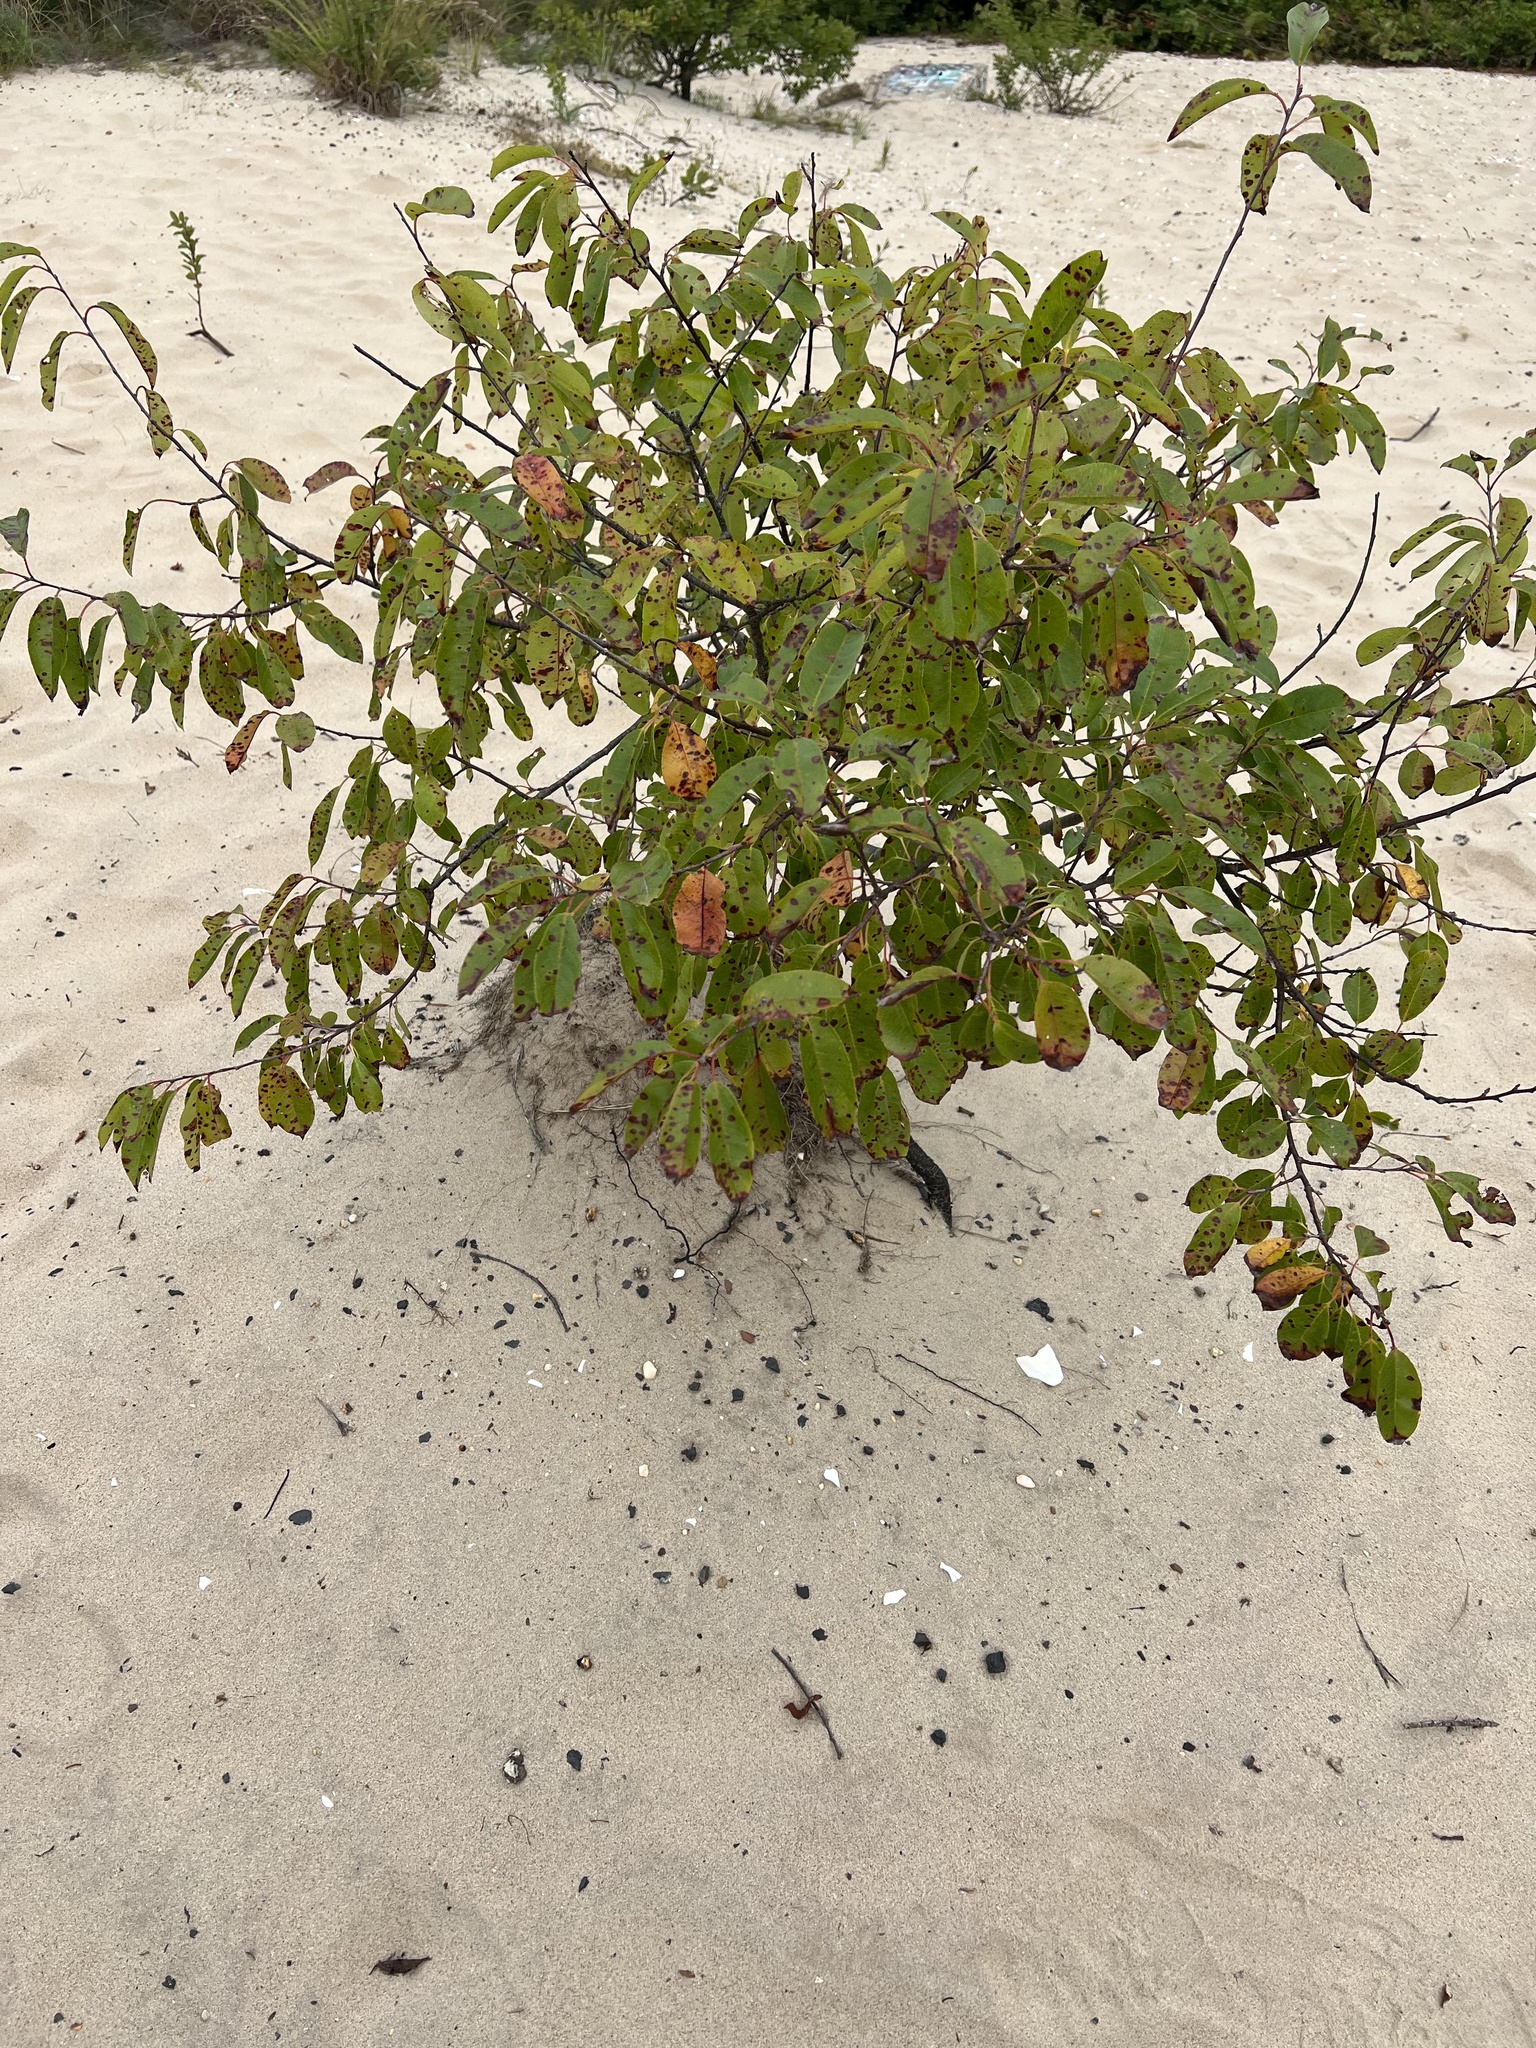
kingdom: Plantae
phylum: Tracheophyta
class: Magnoliopsida
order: Rosales
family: Rosaceae
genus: Prunus
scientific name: Prunus serotina
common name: Black cherry
